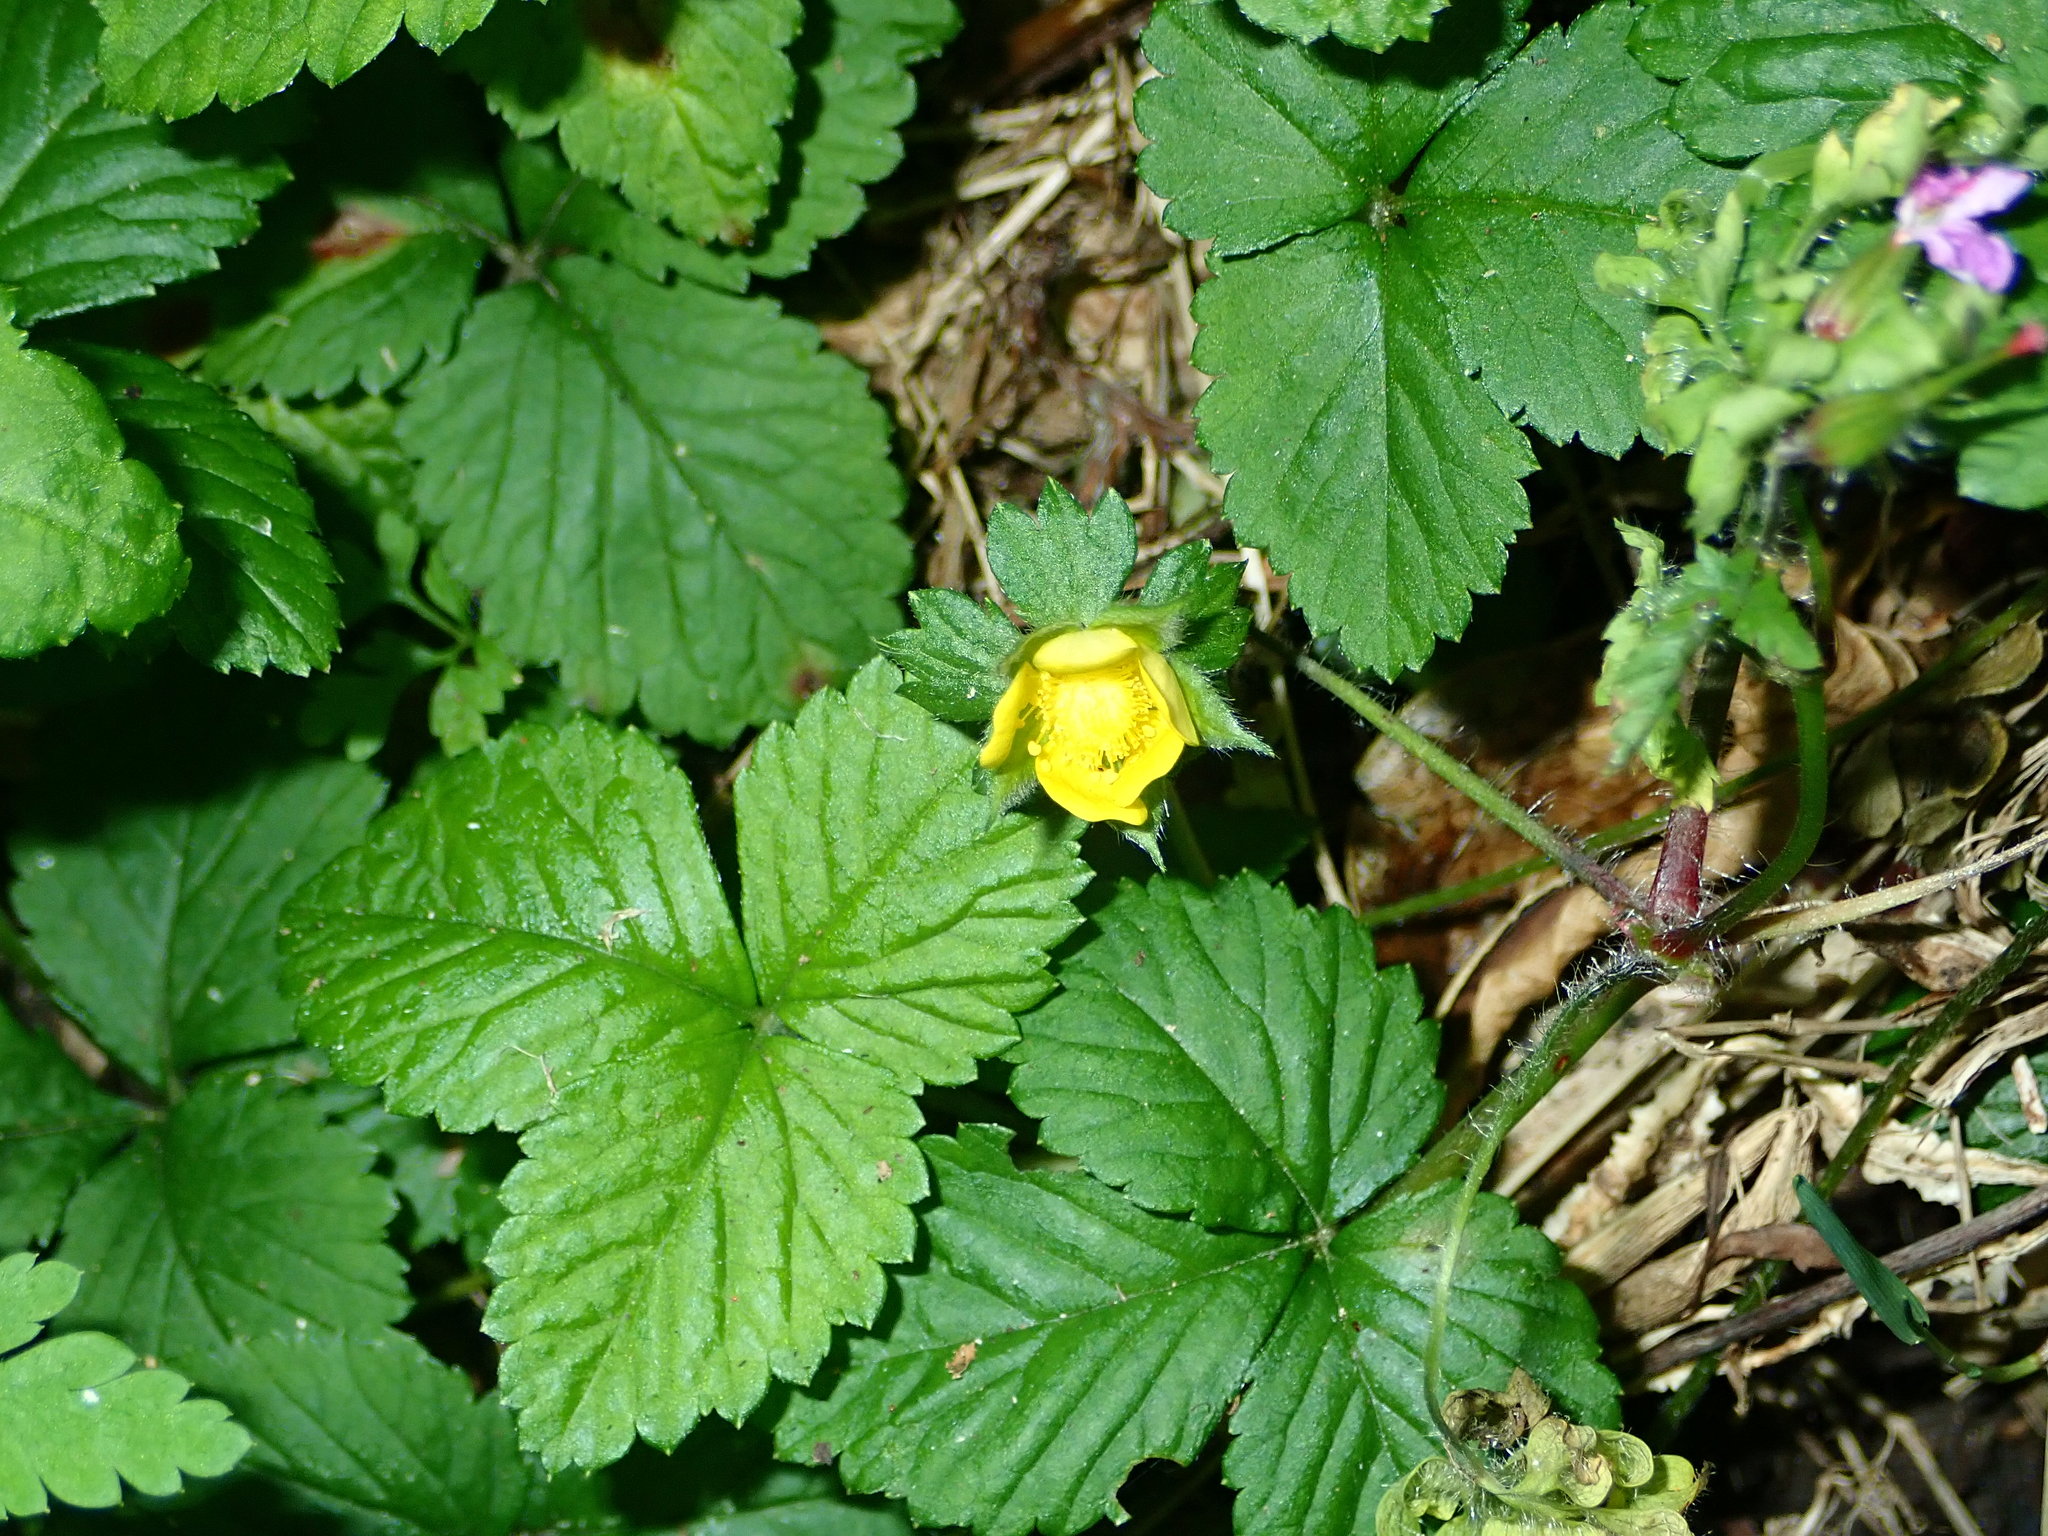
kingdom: Plantae
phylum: Tracheophyta
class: Magnoliopsida
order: Rosales
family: Rosaceae
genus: Potentilla
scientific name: Potentilla indica
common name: Yellow-flowered strawberry
